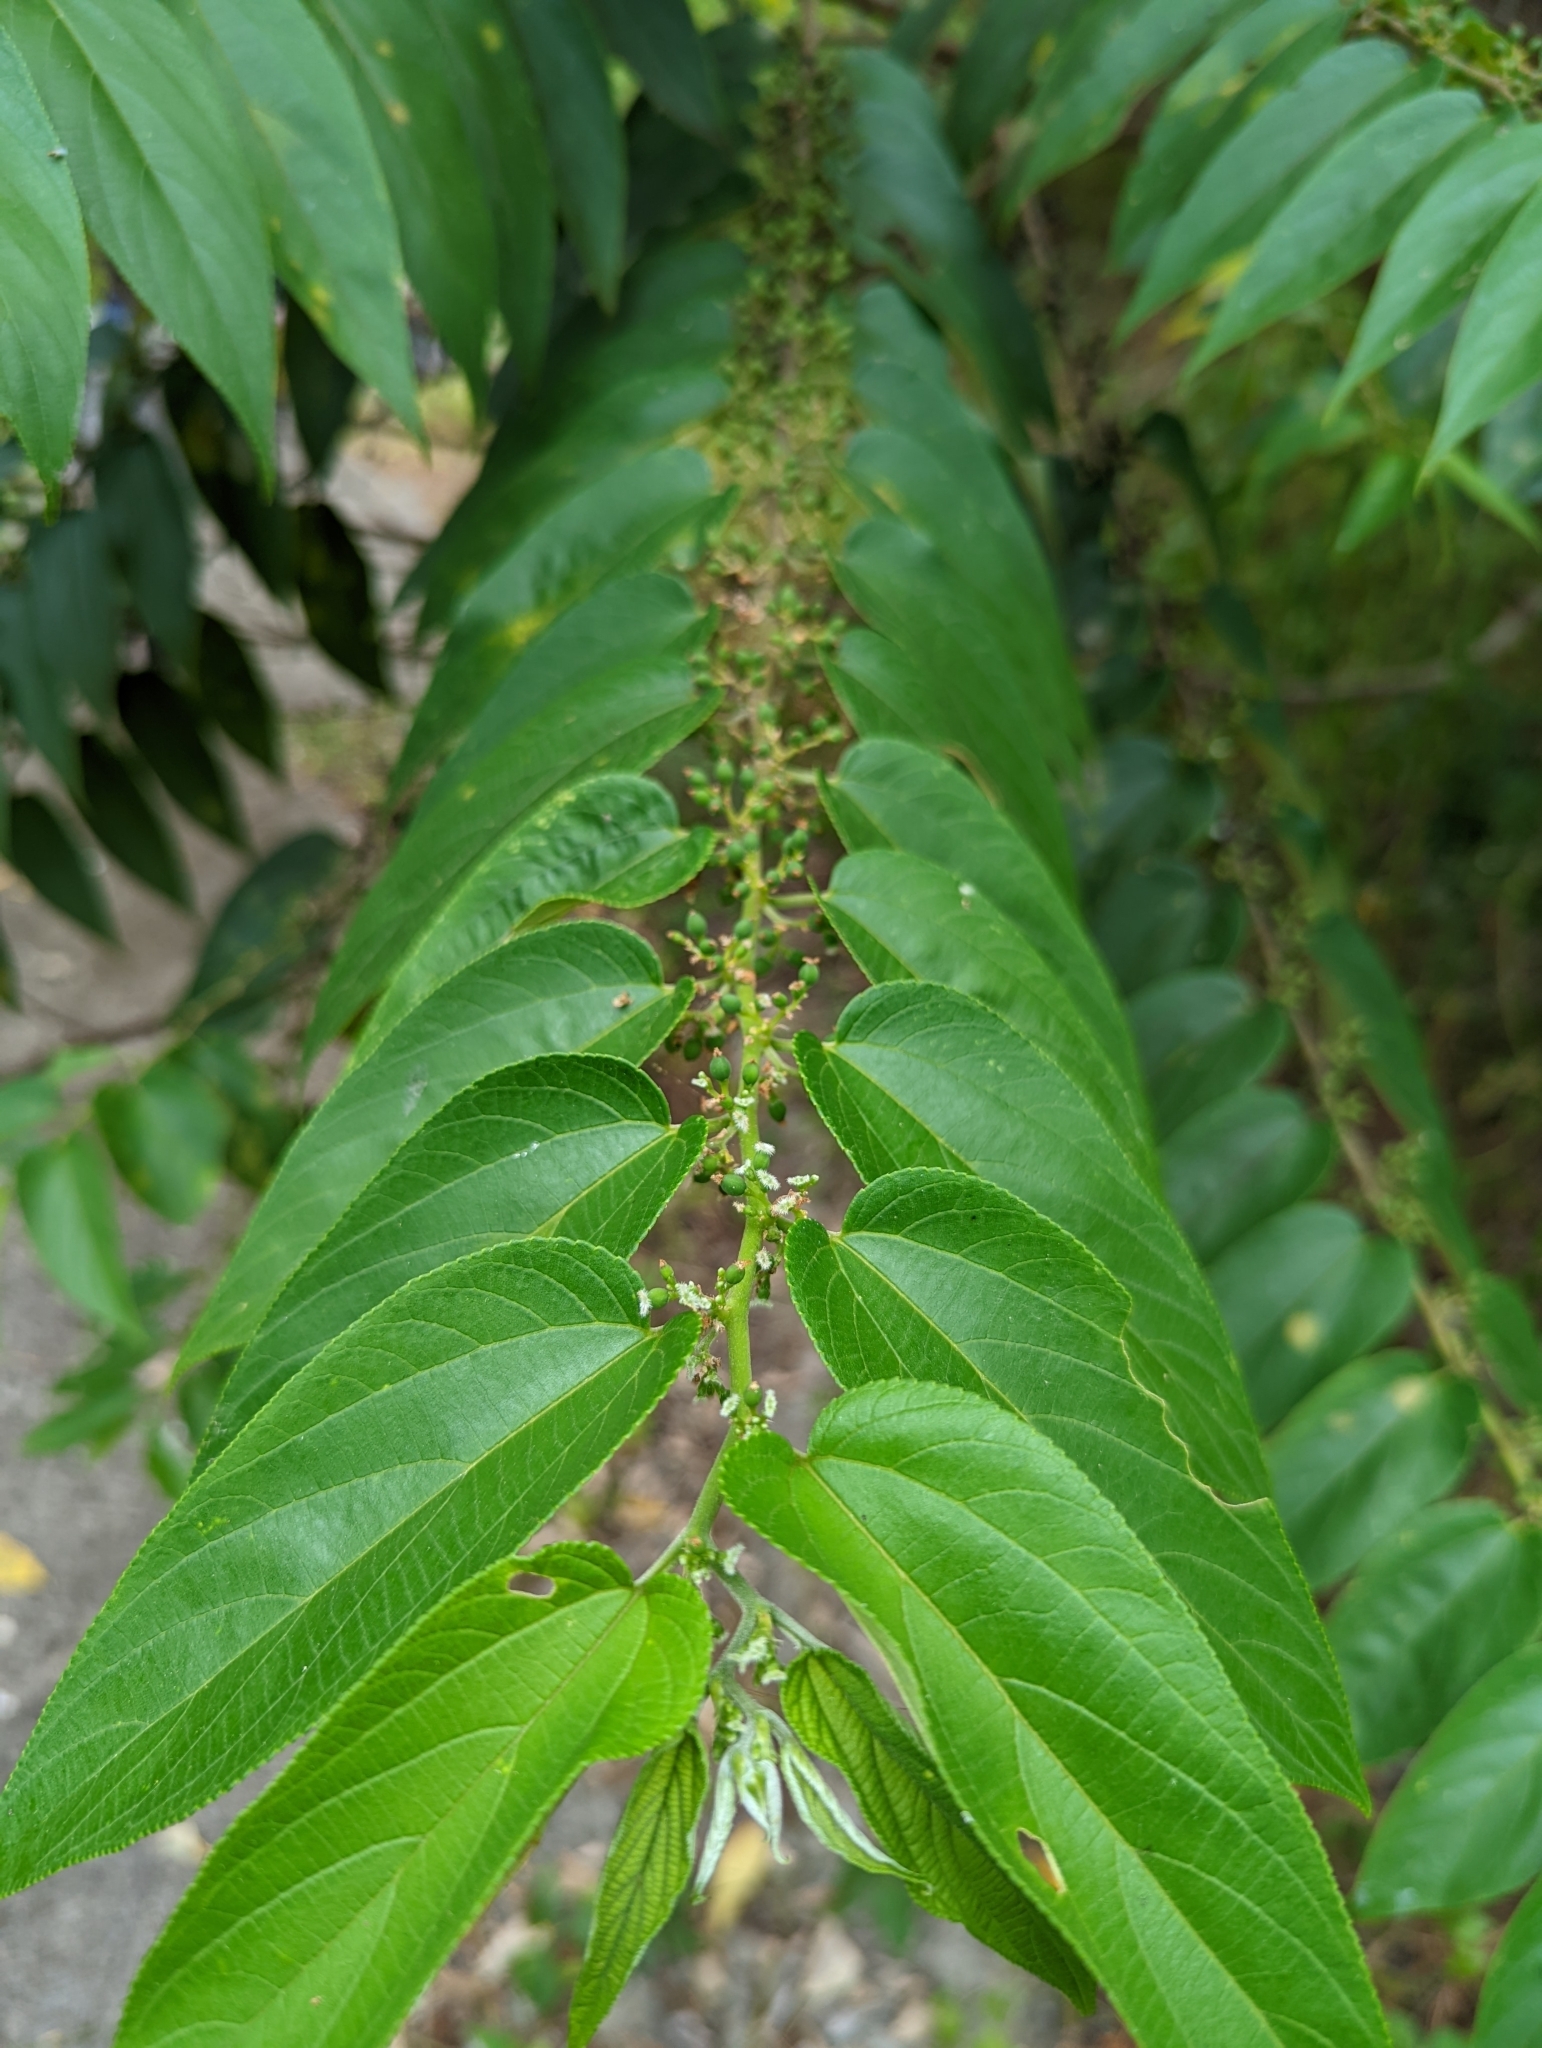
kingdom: Plantae
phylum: Tracheophyta
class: Magnoliopsida
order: Rosales
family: Cannabaceae
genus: Trema
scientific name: Trema orientale
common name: Indian charcoal tree
